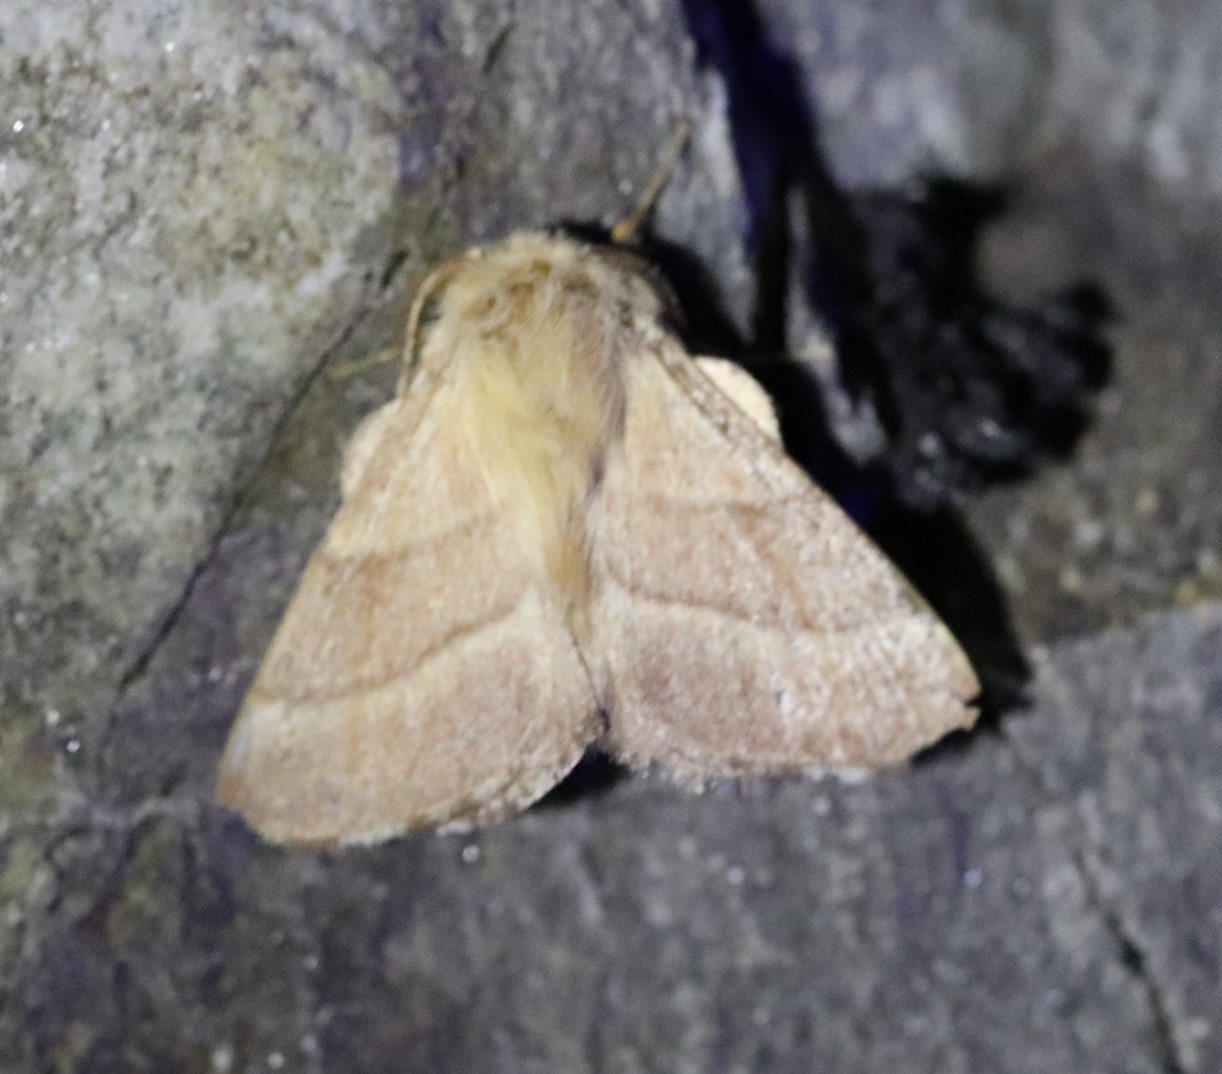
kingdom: Animalia
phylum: Arthropoda
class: Insecta
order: Lepidoptera
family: Lasiocampidae
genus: Malacosoma
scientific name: Malacosoma neustria
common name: The lackey
